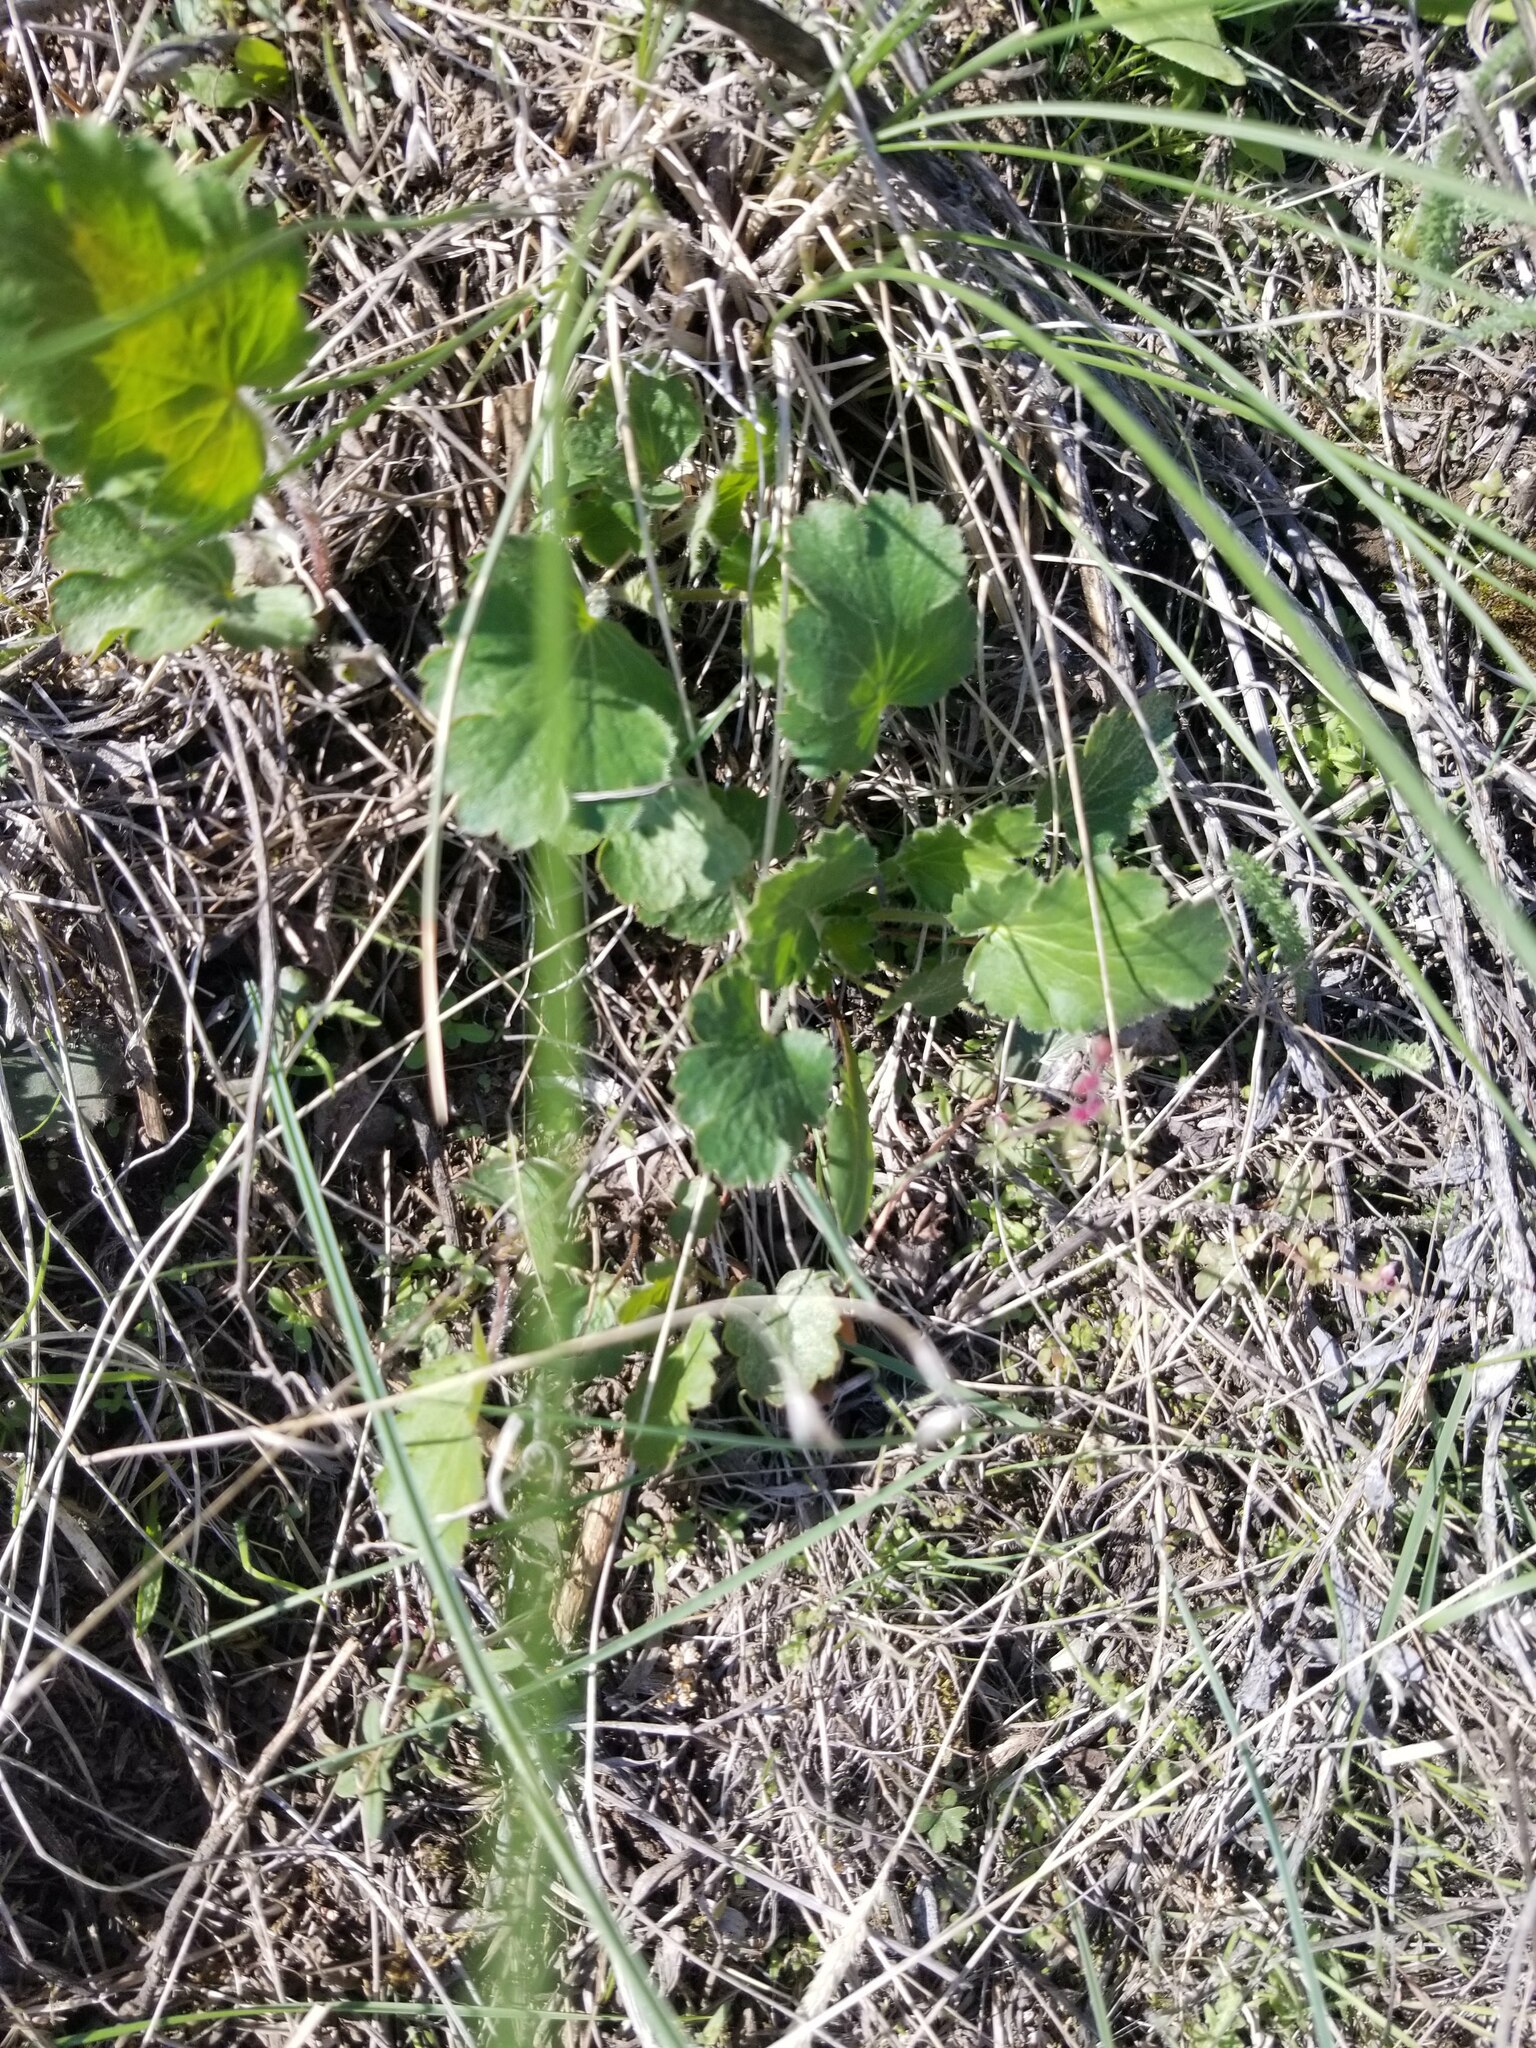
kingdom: Plantae
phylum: Tracheophyta
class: Magnoliopsida
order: Saxifragales
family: Saxifragaceae
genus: Heuchera
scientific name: Heuchera cylindrica
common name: Mat alumroot
